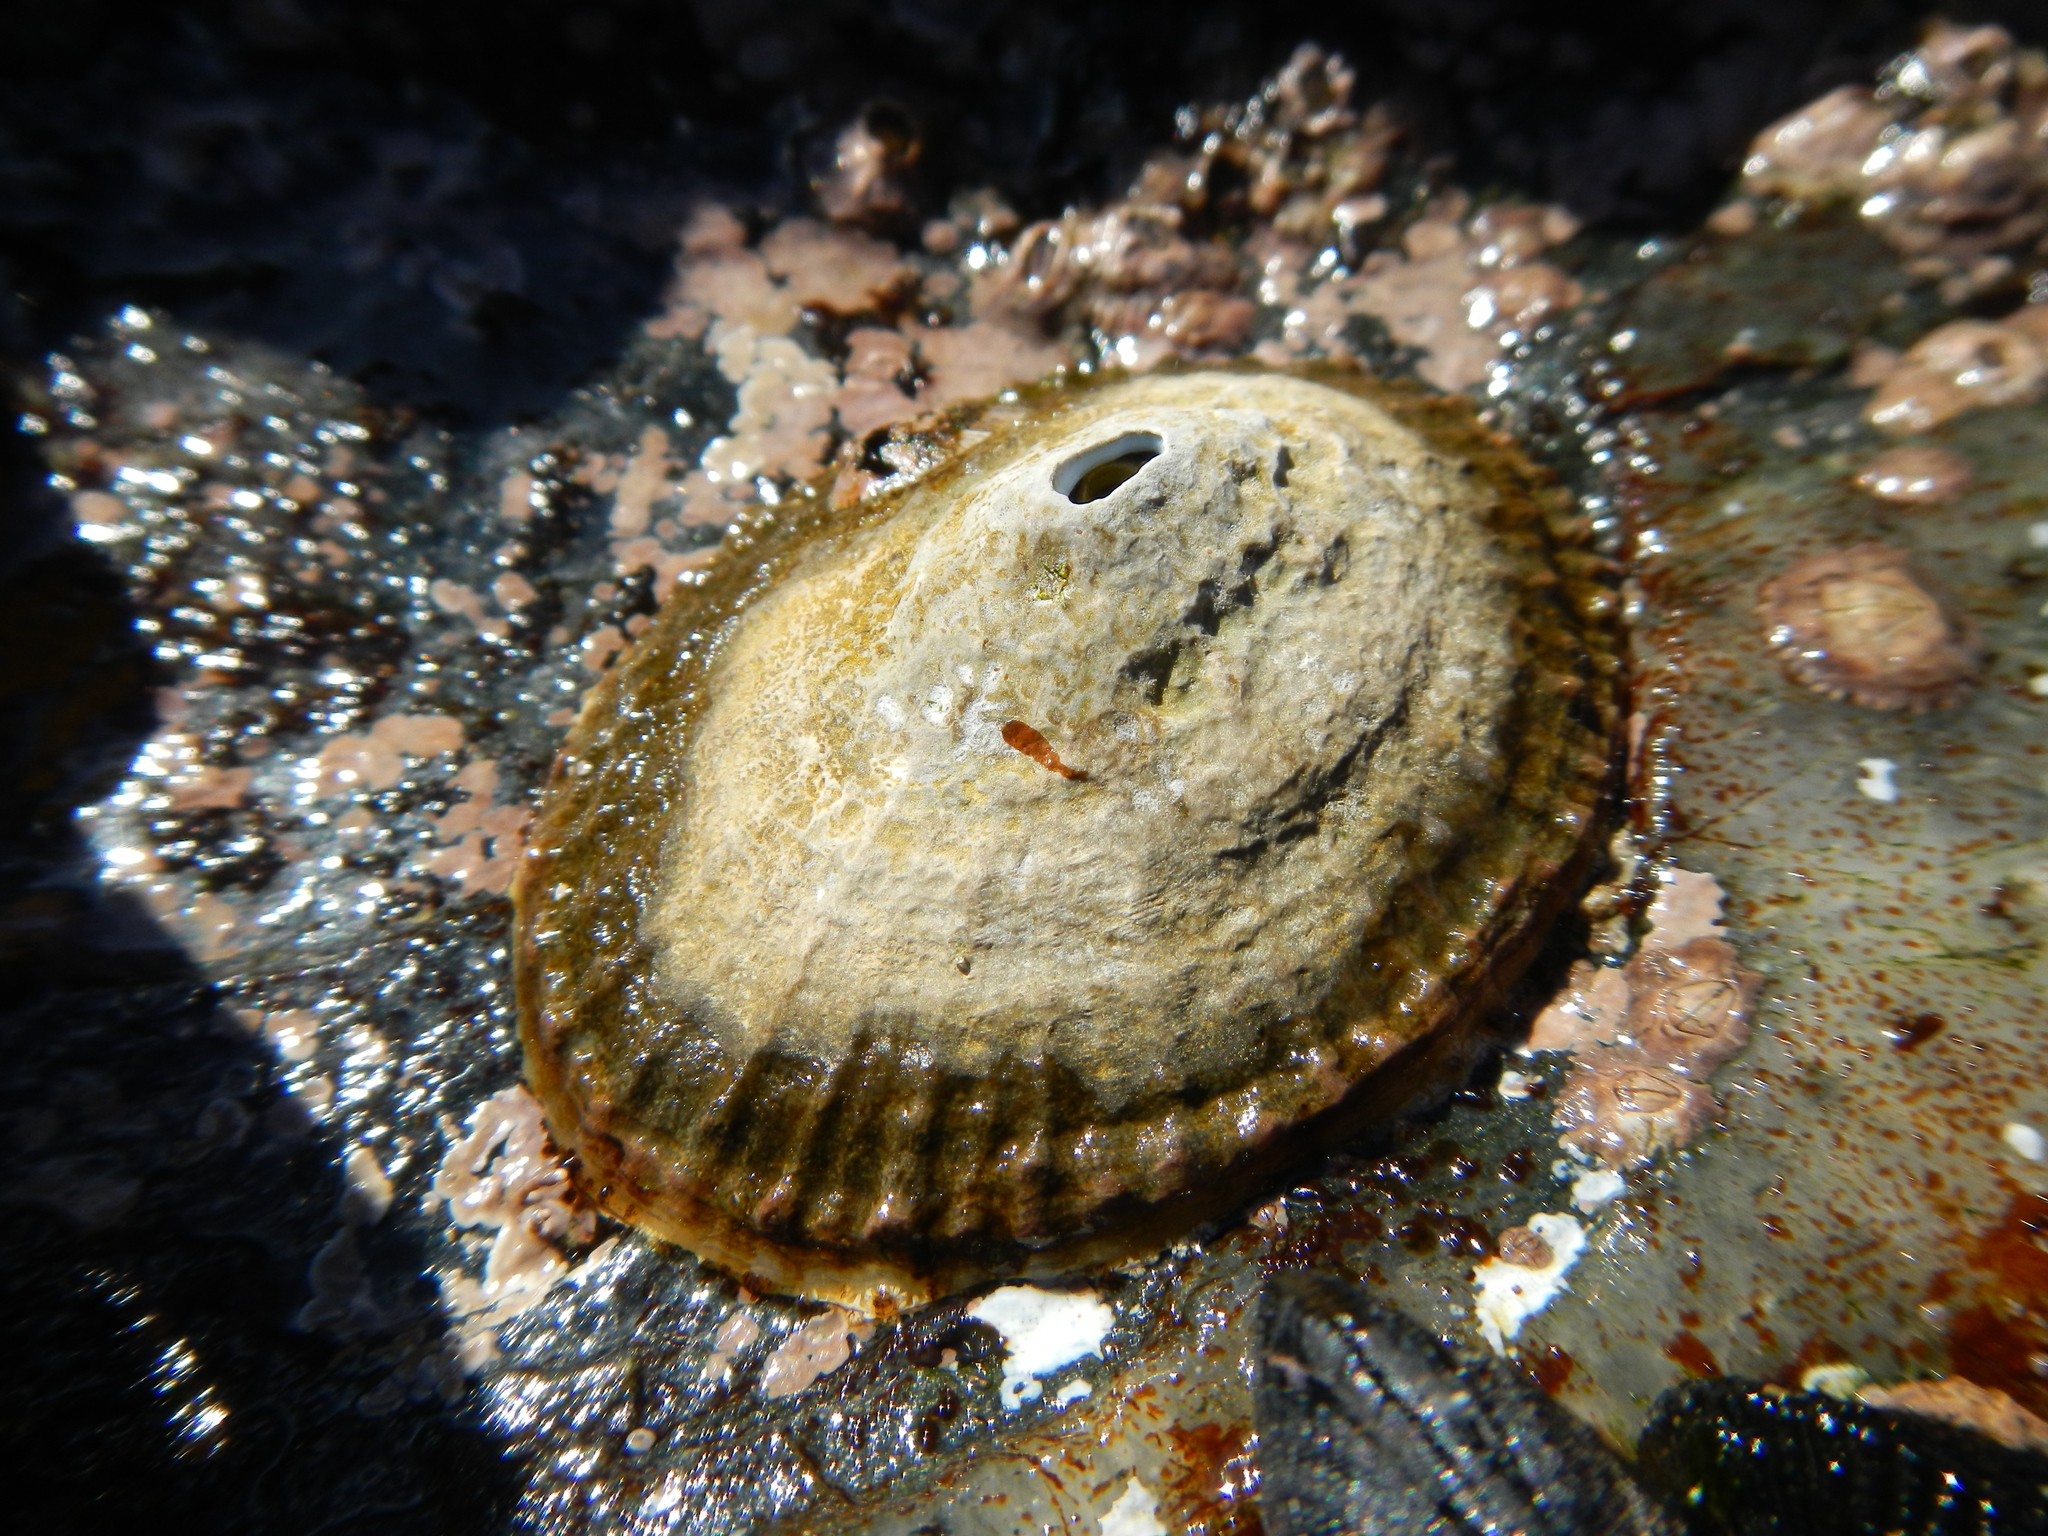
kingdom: Animalia
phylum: Mollusca
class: Gastropoda
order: Lepetellida
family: Fissurellidae
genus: Fissurella
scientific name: Fissurella costata
